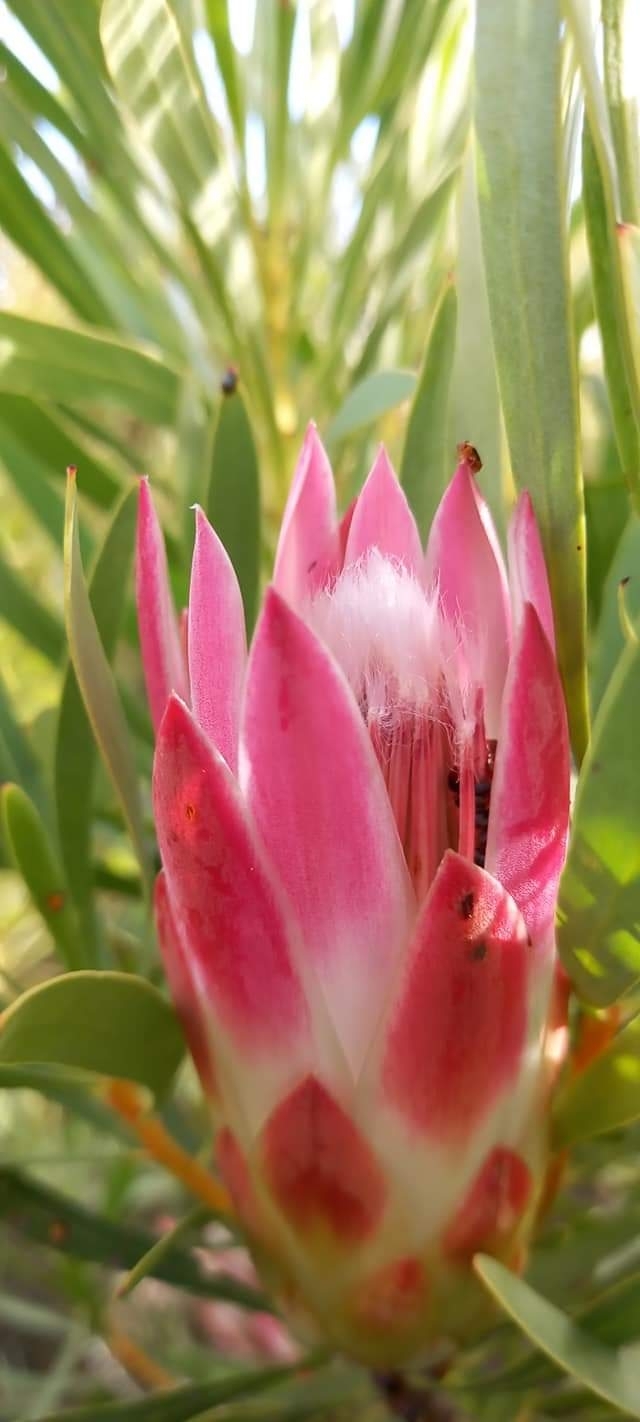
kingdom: Plantae
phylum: Tracheophyta
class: Magnoliopsida
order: Proteales
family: Proteaceae
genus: Protea
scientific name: Protea repens
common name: Sugarbush
